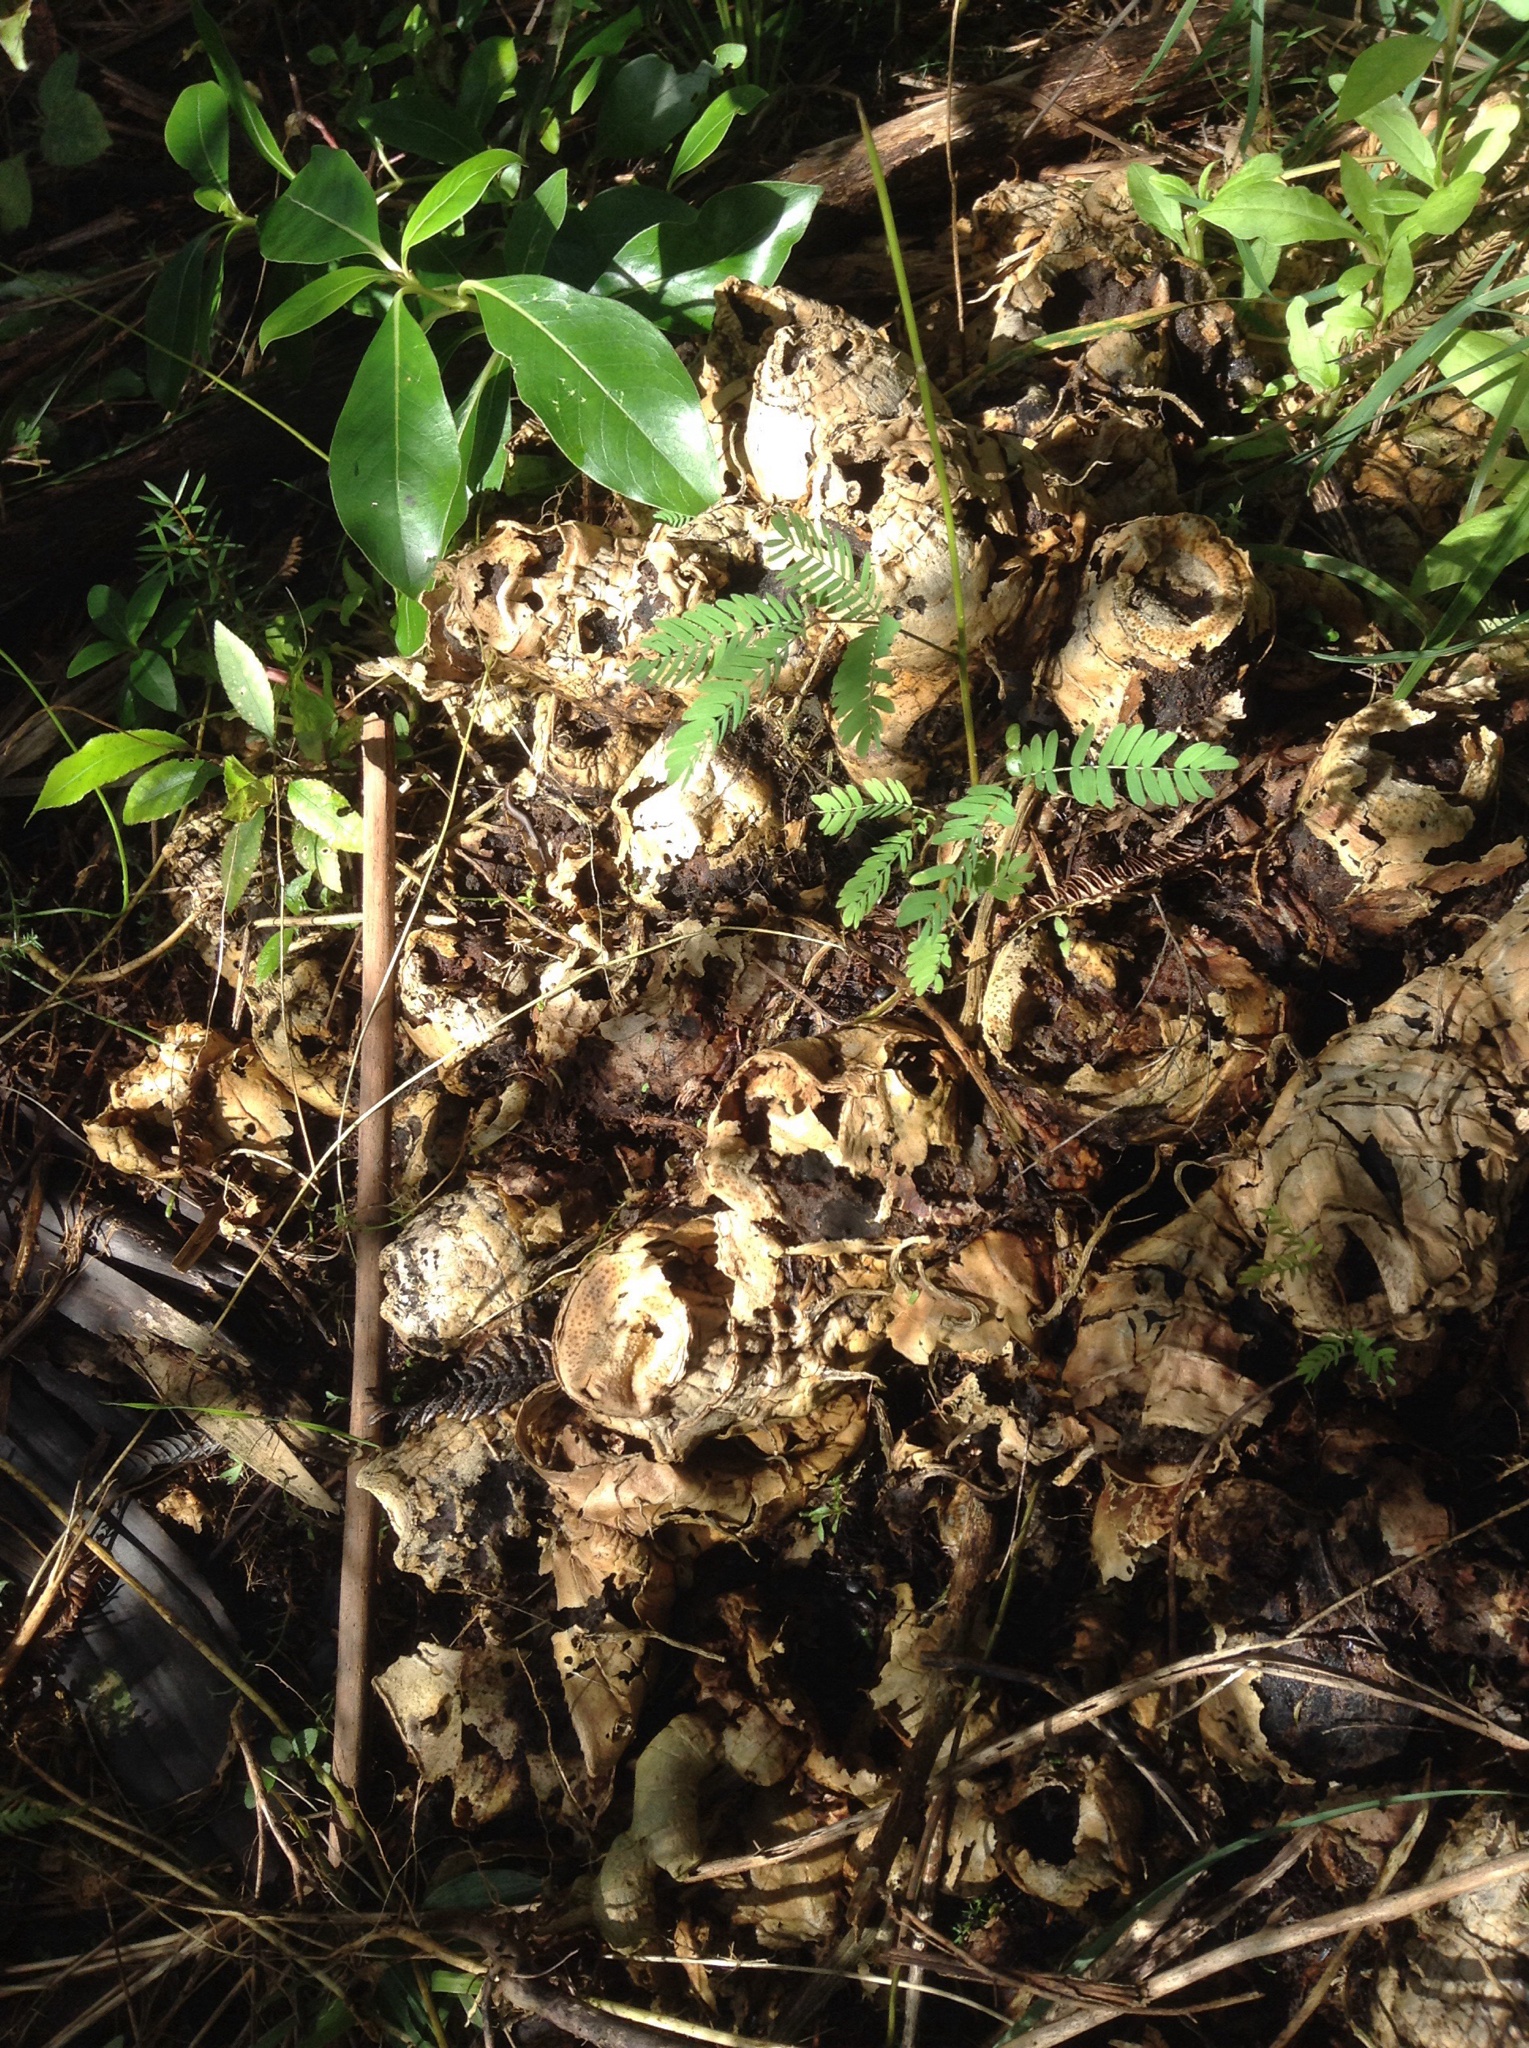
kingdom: Plantae
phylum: Tracheophyta
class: Liliopsida
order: Zingiberales
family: Zingiberaceae
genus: Hedychium
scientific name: Hedychium gardnerianum
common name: Himalayan ginger
